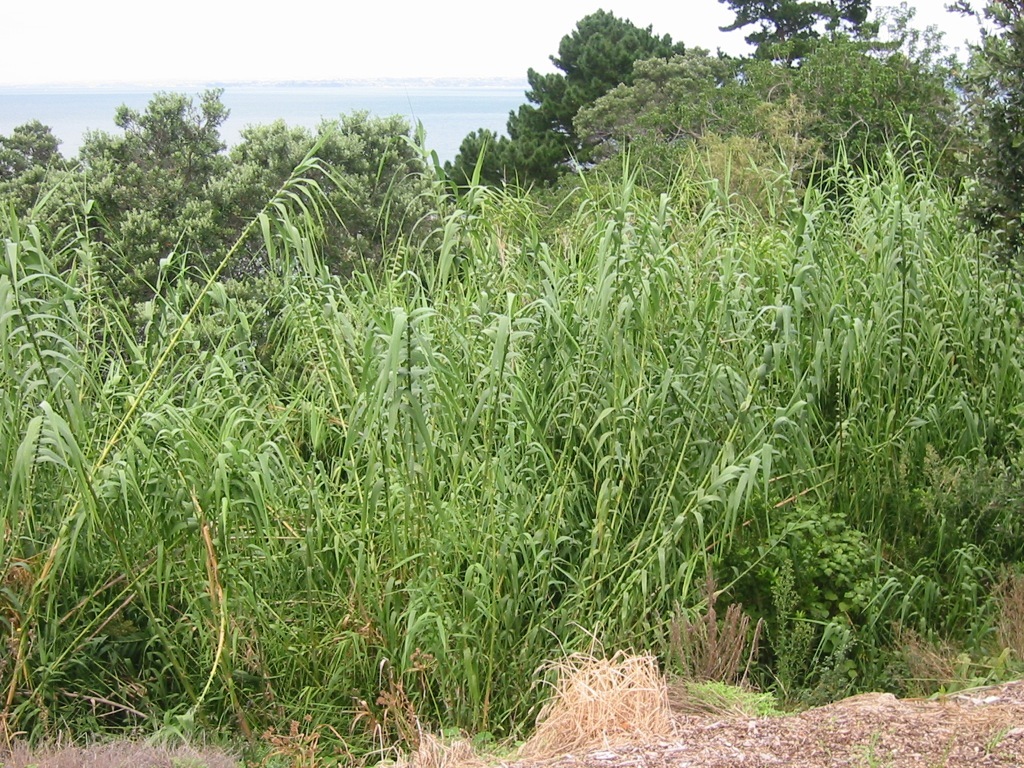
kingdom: Plantae
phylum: Tracheophyta
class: Liliopsida
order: Poales
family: Poaceae
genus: Arundo
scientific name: Arundo donax
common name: Giant reed
